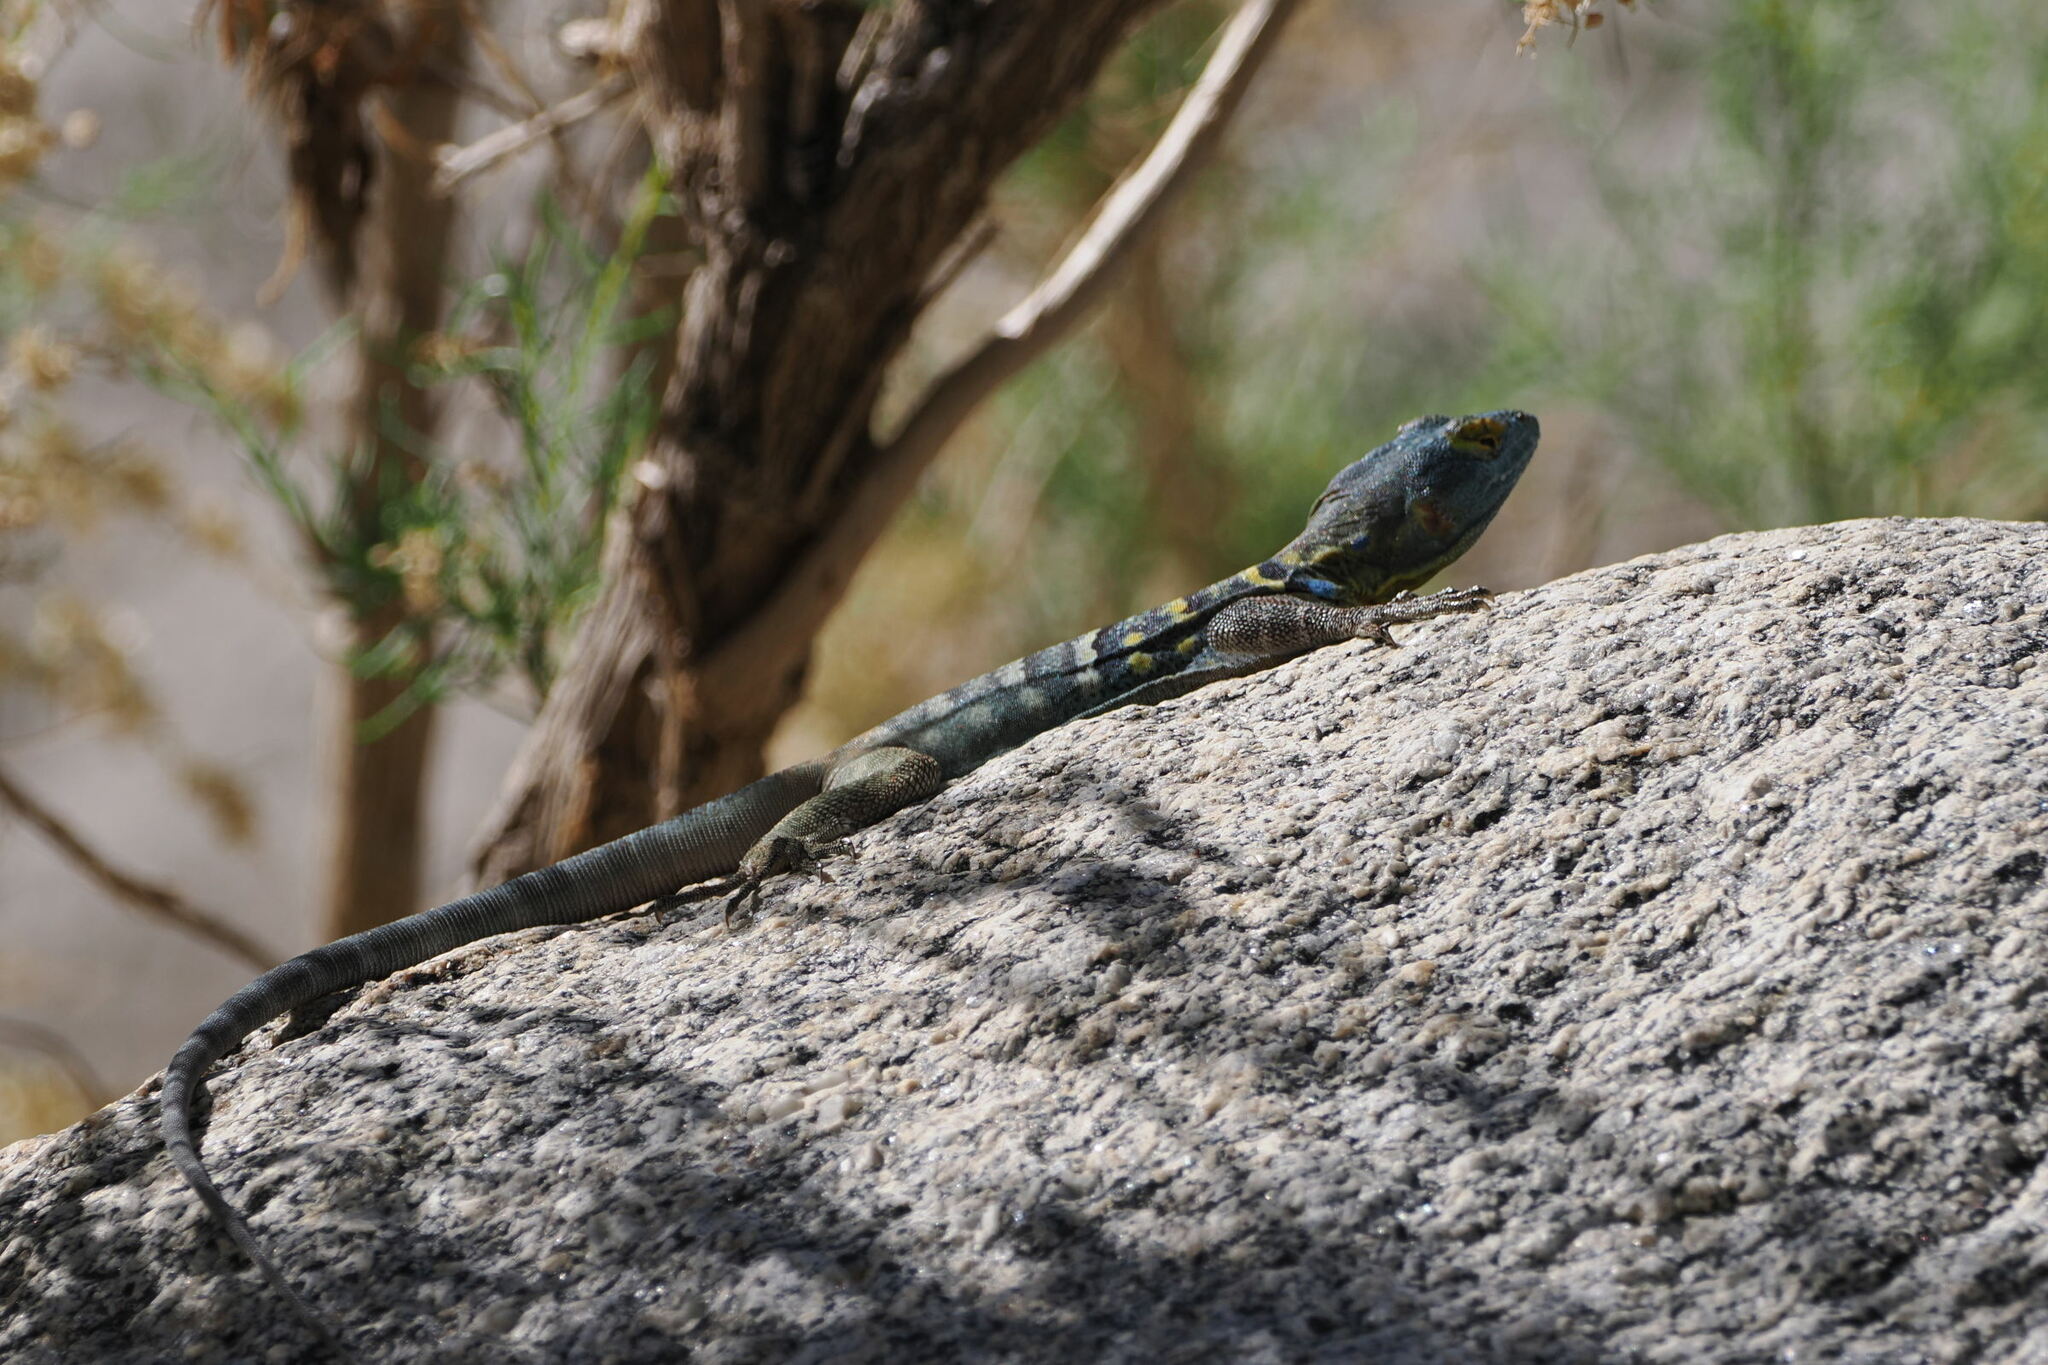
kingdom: Animalia
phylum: Chordata
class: Squamata
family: Phrynosomatidae
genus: Petrosaurus
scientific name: Petrosaurus thalassinus
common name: Baja california rock lizard
